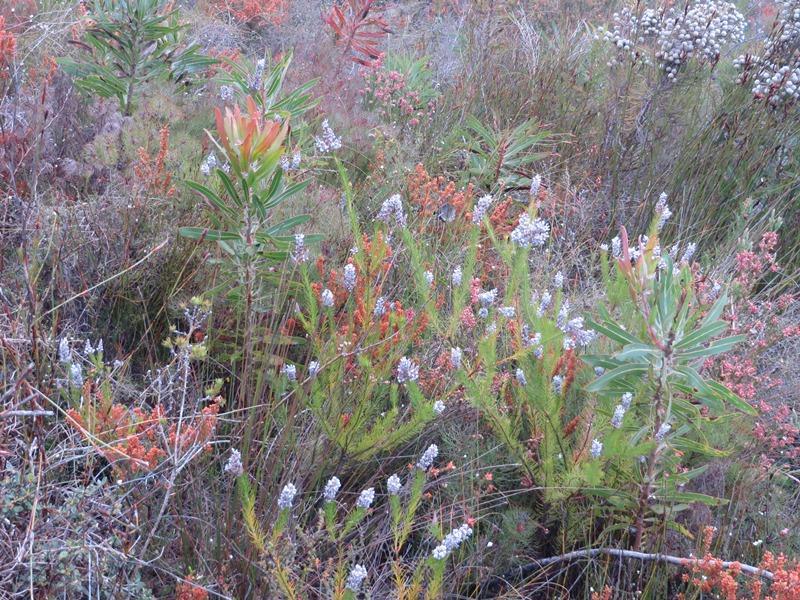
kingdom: Plantae
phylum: Tracheophyta
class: Magnoliopsida
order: Proteales
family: Proteaceae
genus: Spatalla
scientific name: Spatalla propinqua
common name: Lax spoon
